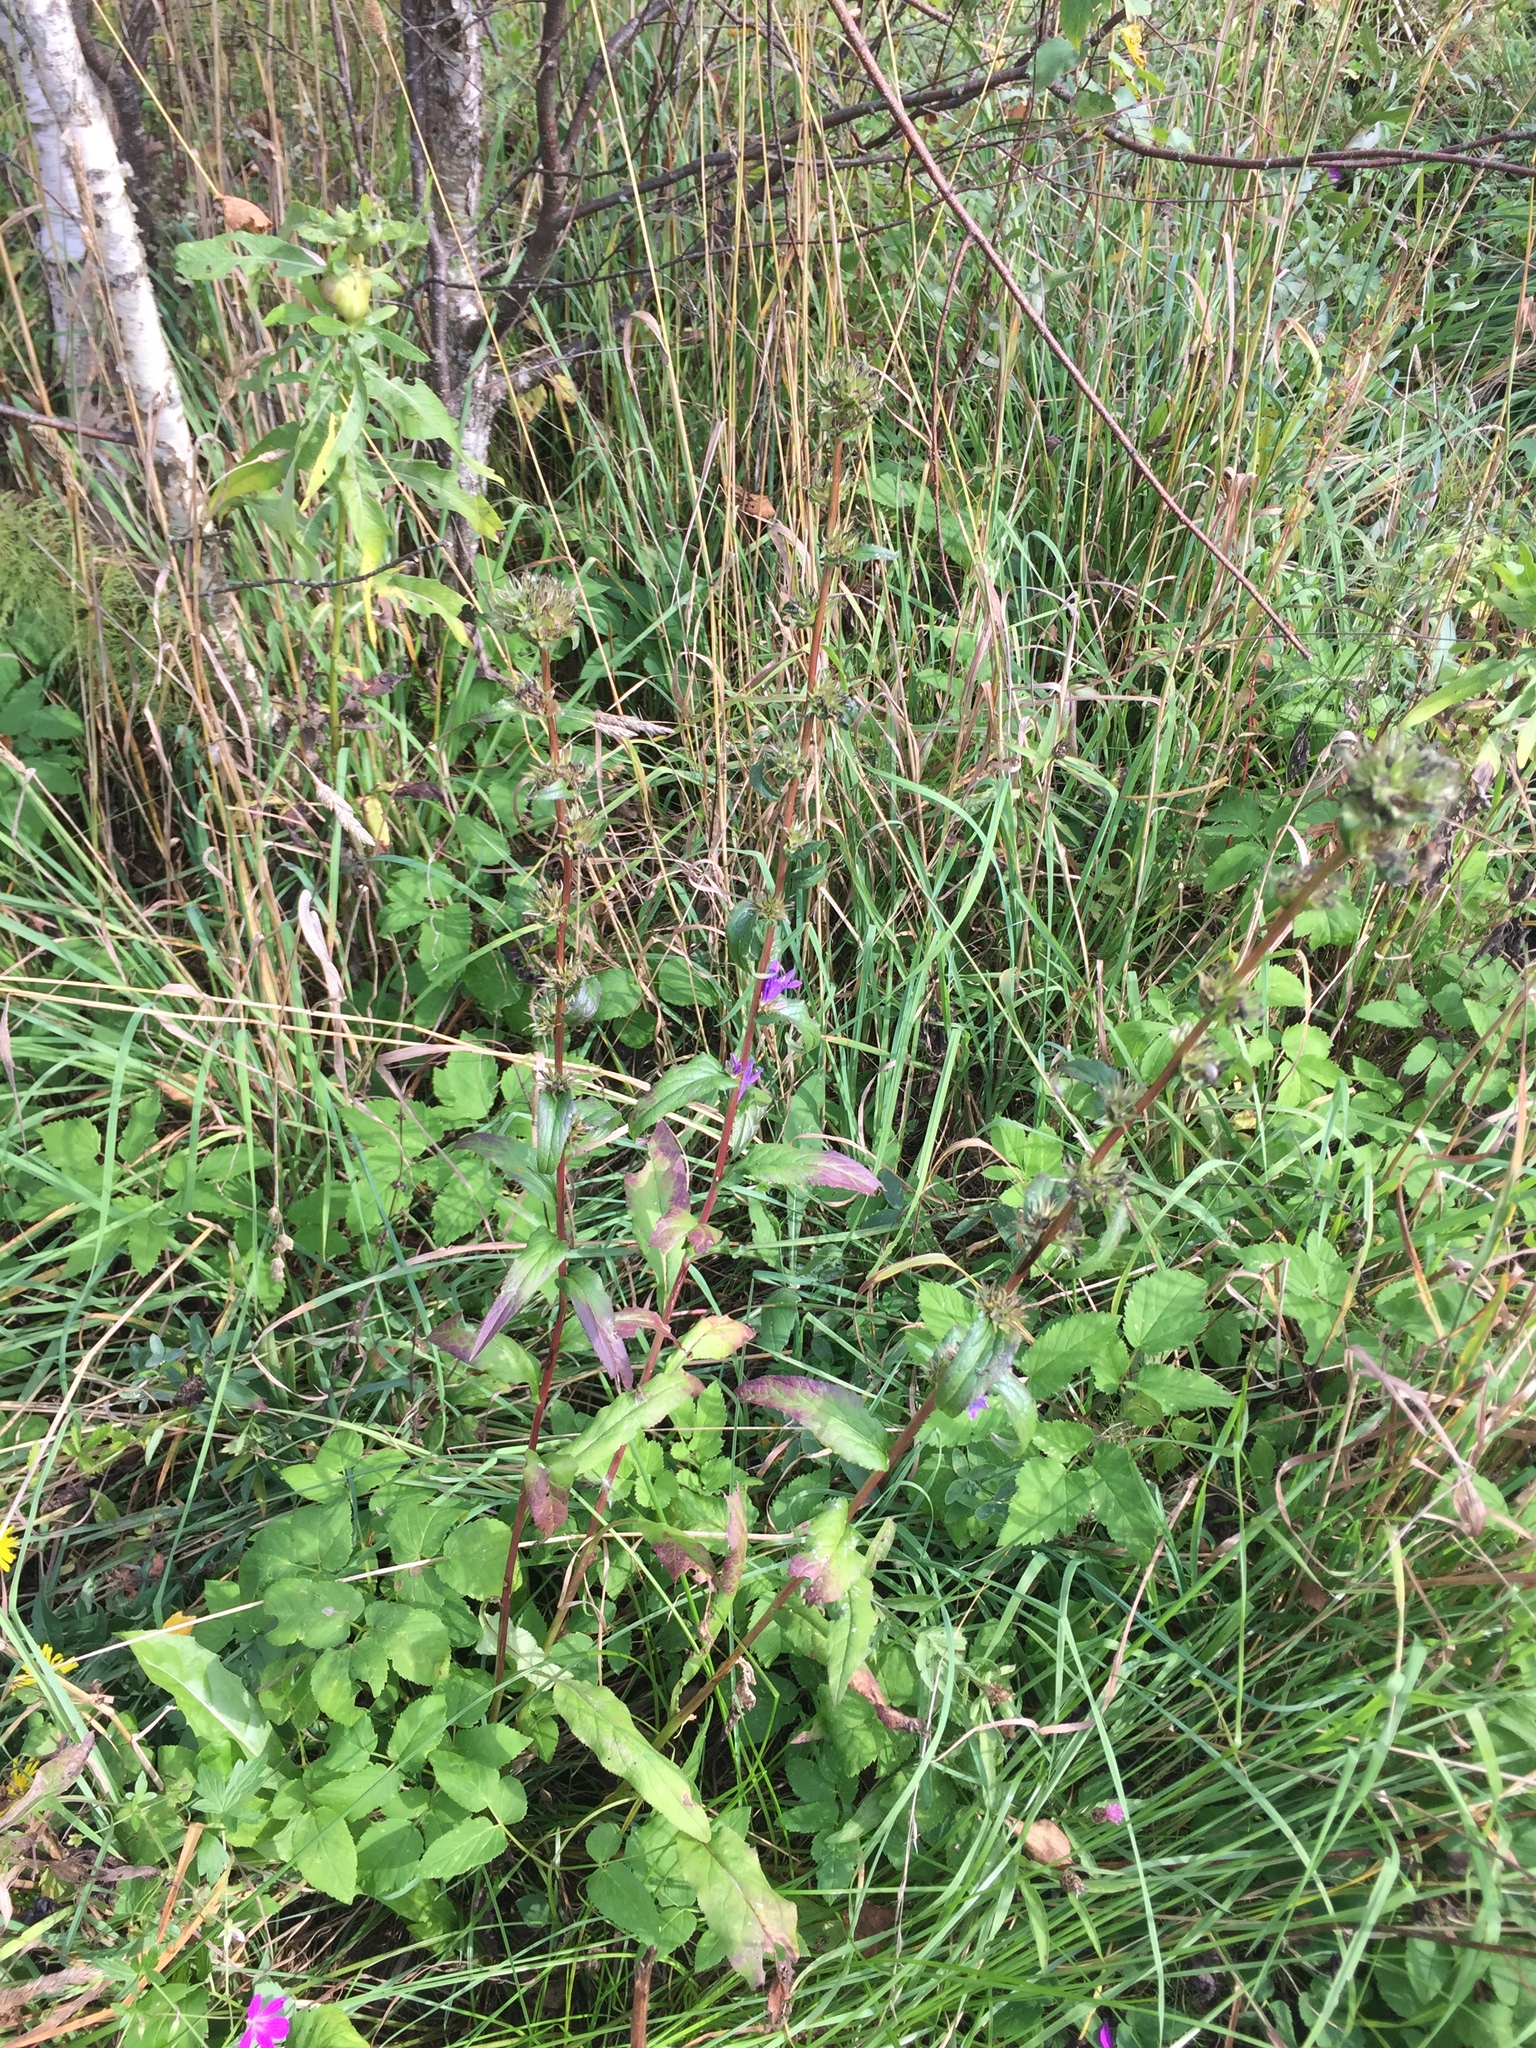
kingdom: Plantae
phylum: Tracheophyta
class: Magnoliopsida
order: Asterales
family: Campanulaceae
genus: Campanula
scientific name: Campanula glomerata
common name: Clustered bellflower
